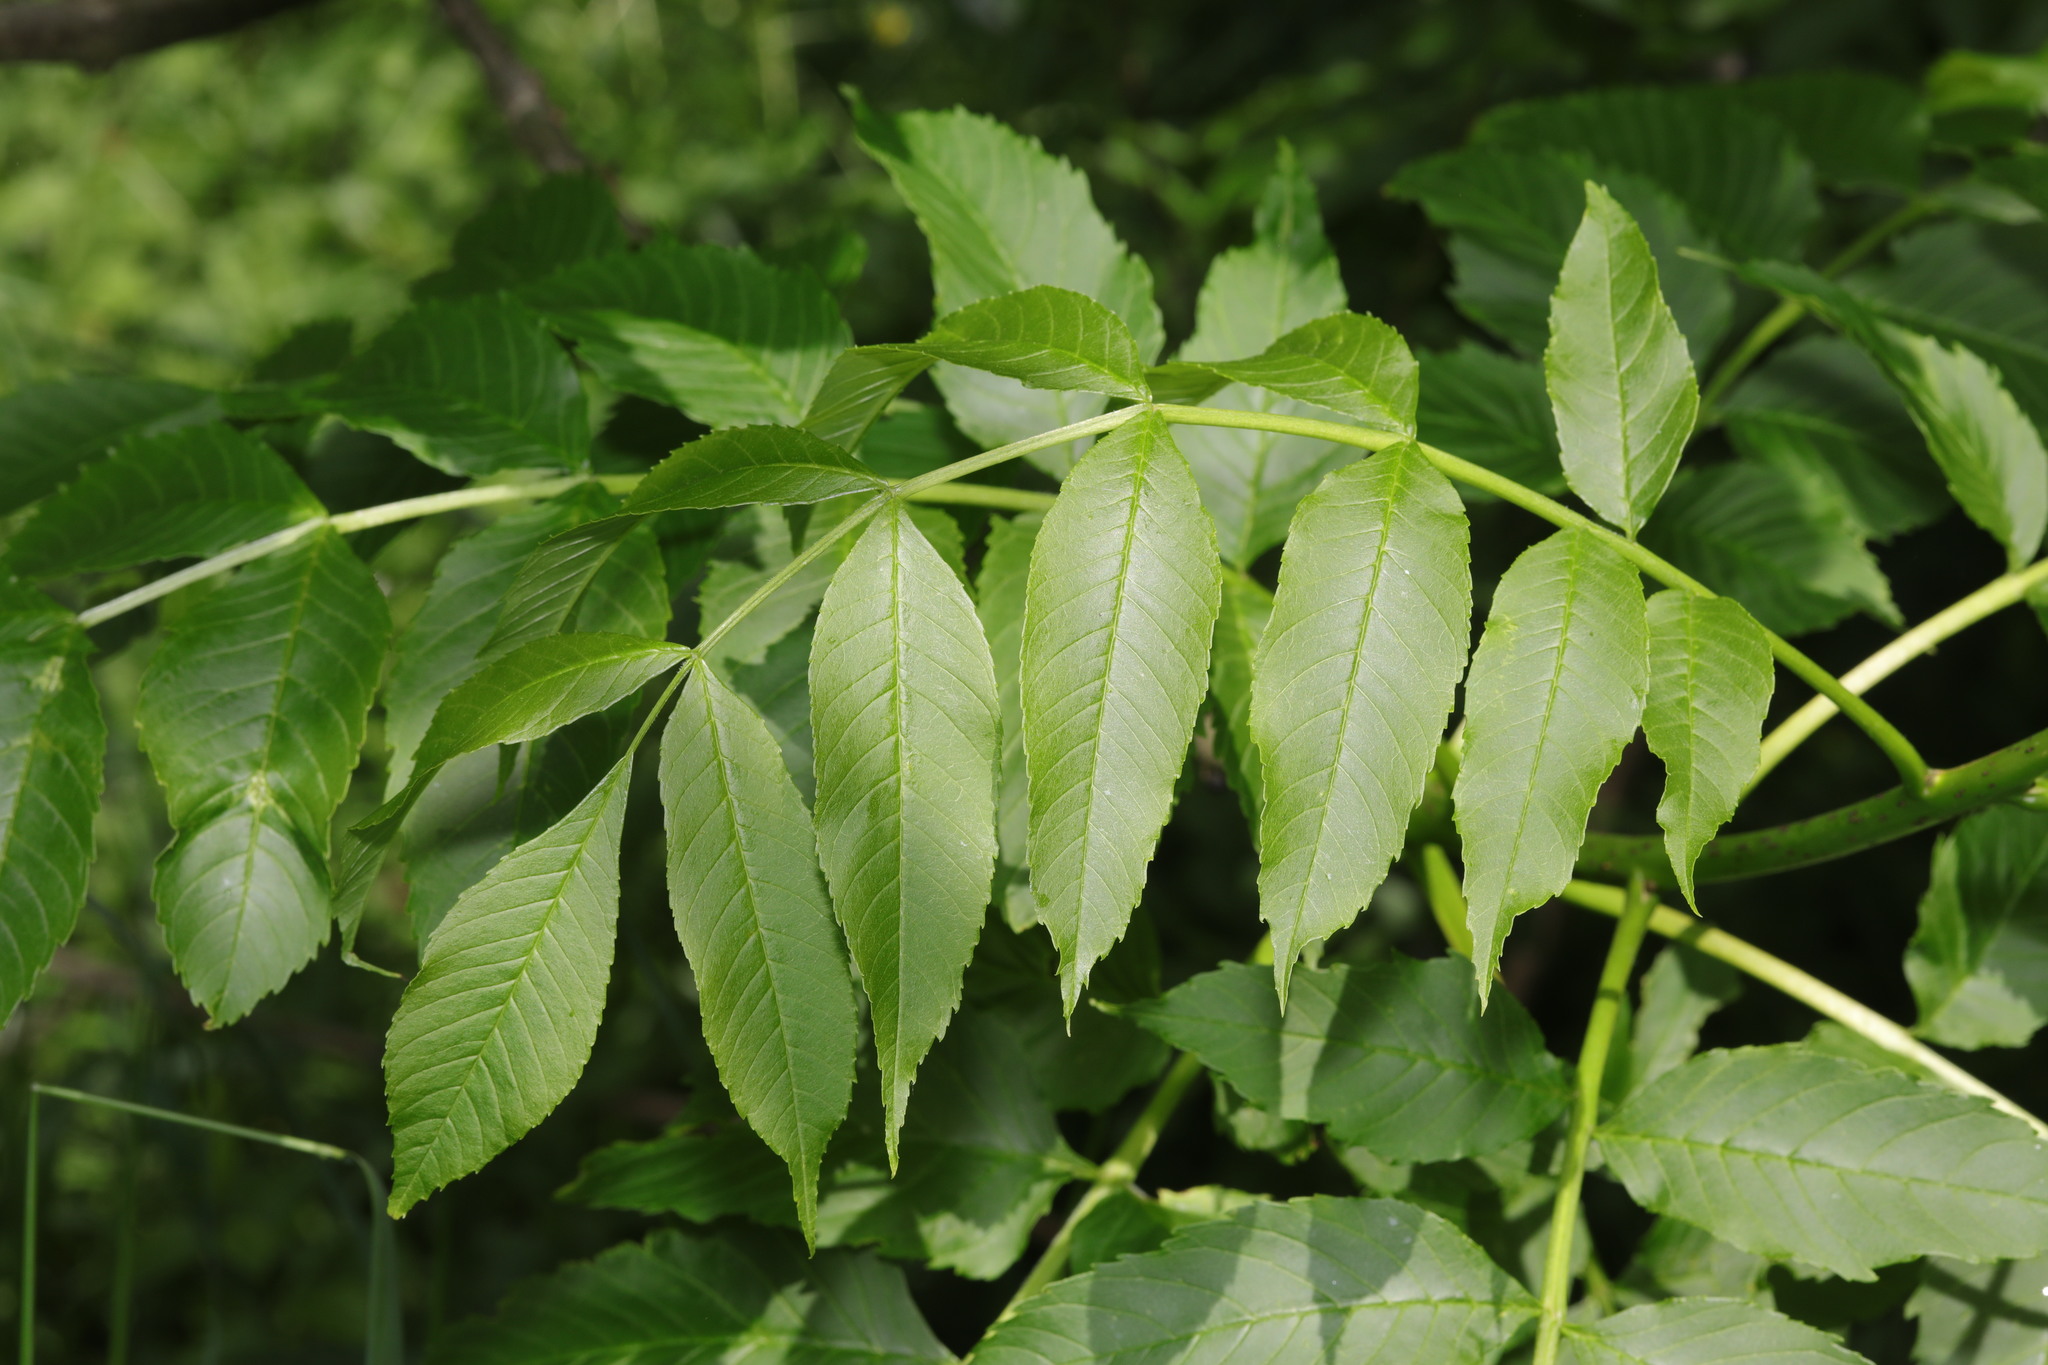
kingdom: Plantae
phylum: Tracheophyta
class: Magnoliopsida
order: Lamiales
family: Oleaceae
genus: Fraxinus
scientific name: Fraxinus excelsior
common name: European ash
